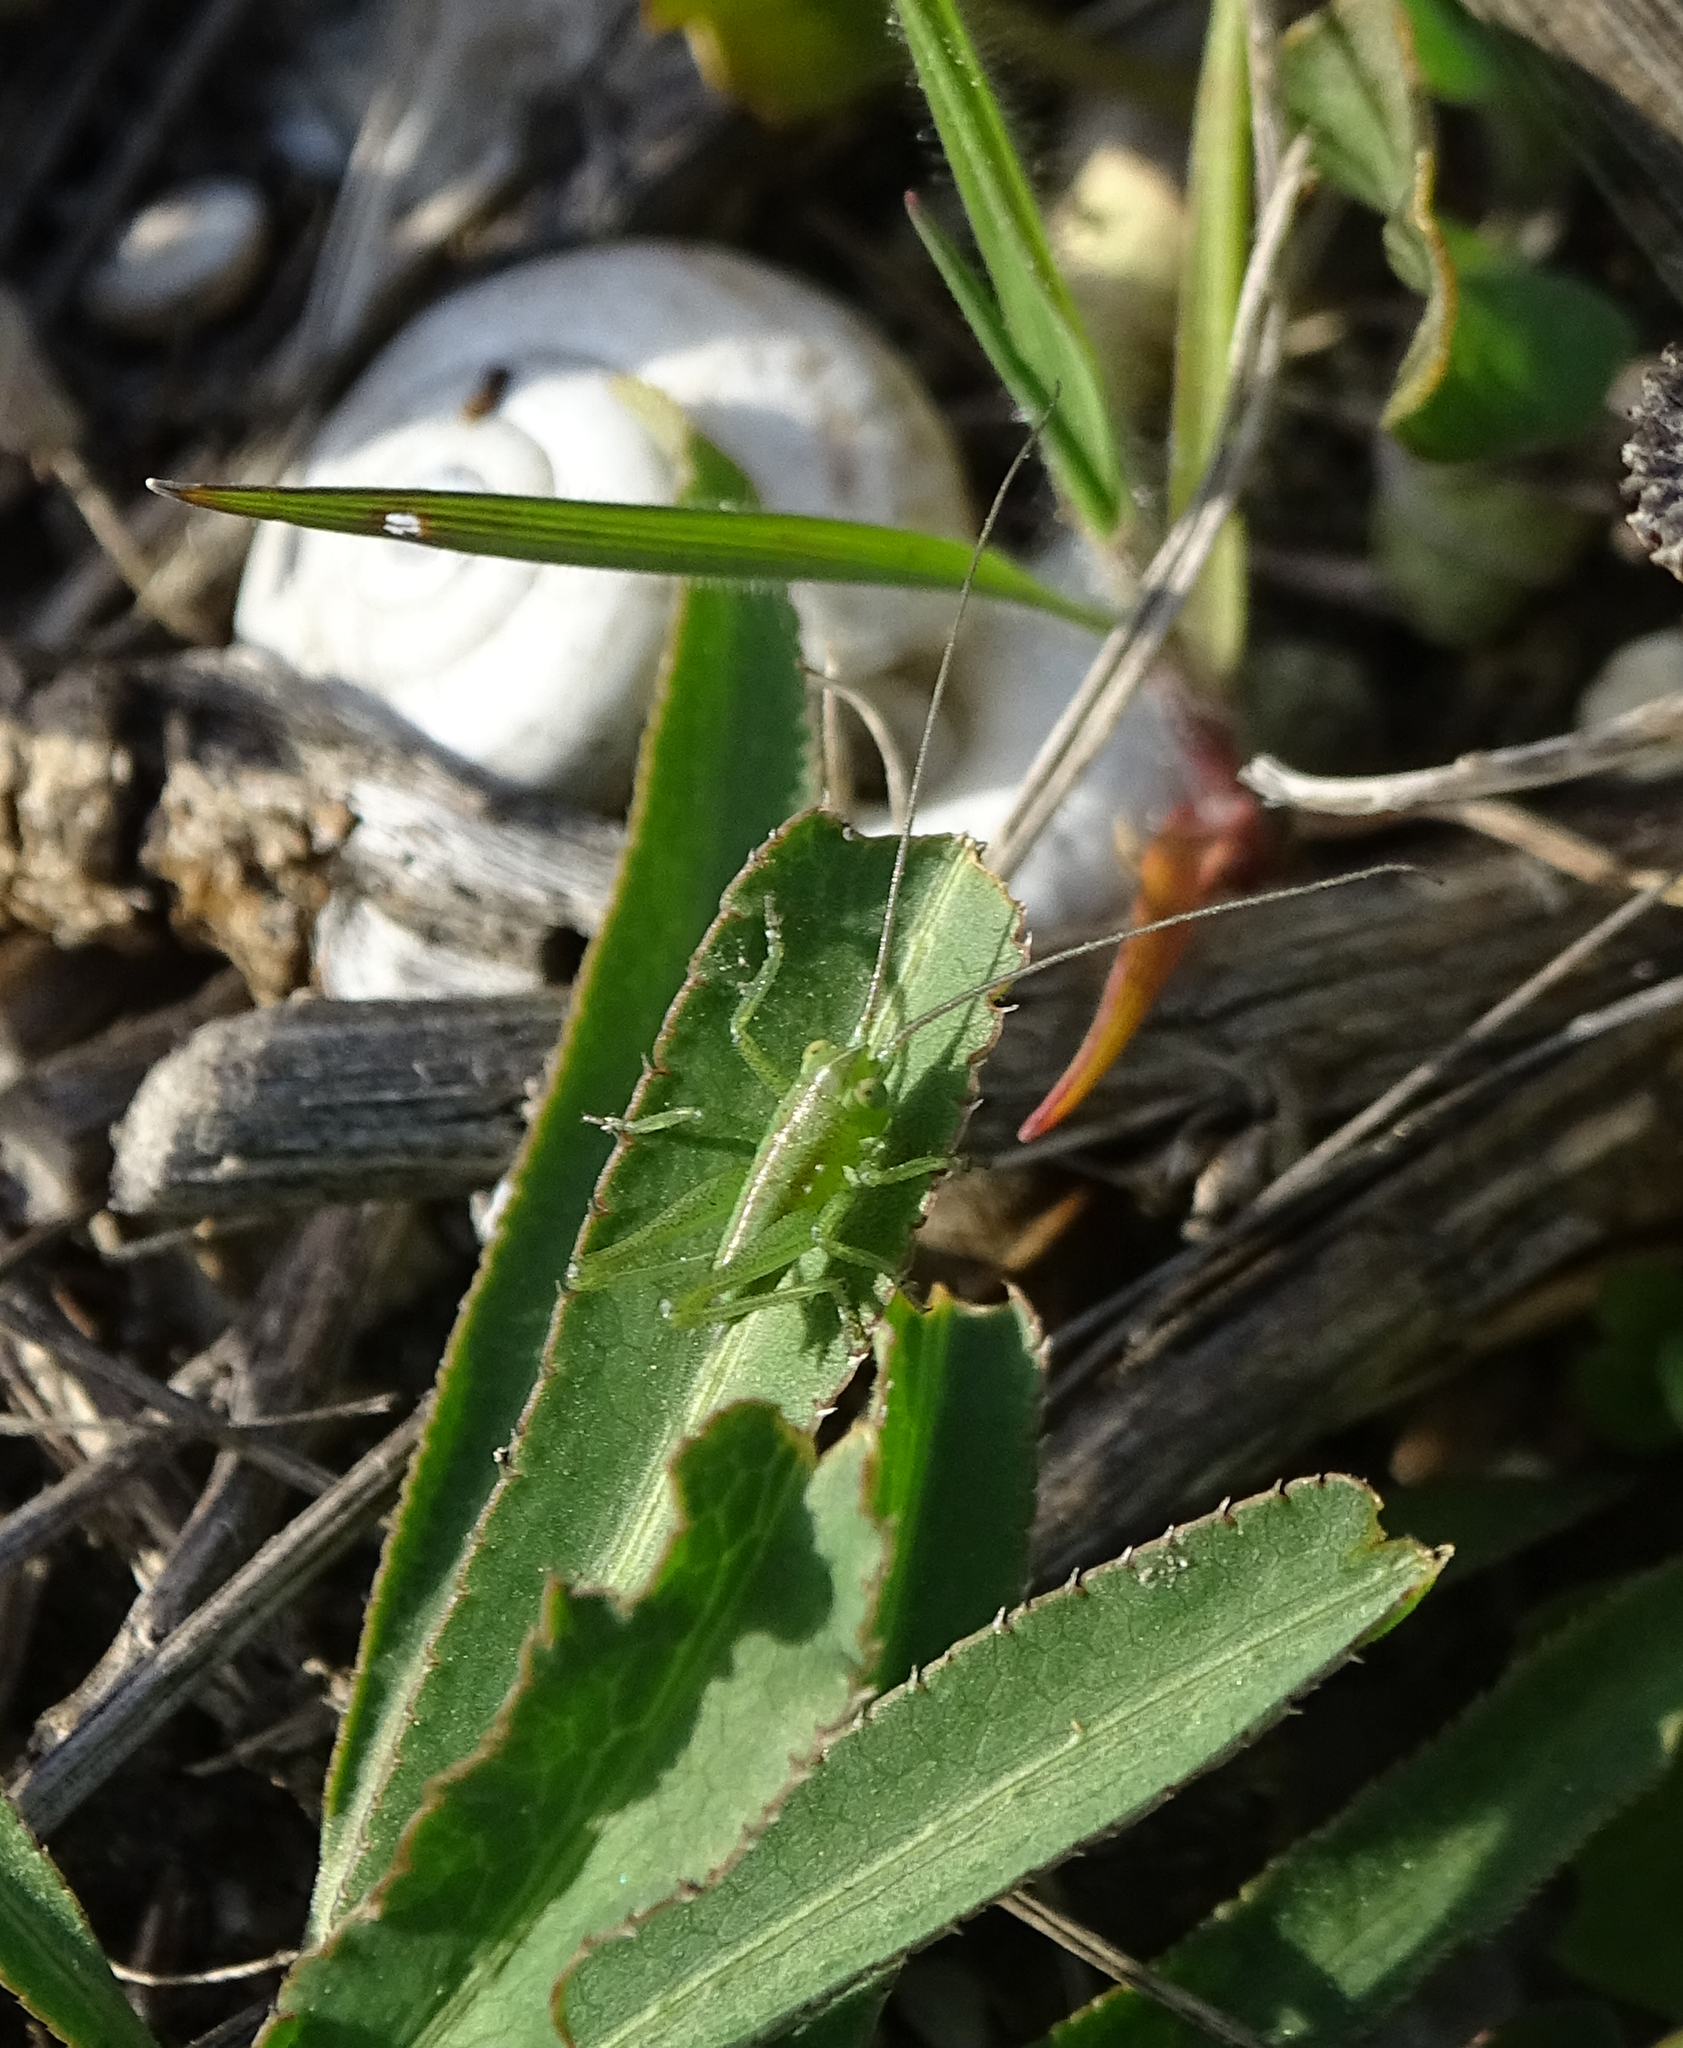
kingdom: Animalia
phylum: Arthropoda
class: Insecta
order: Orthoptera
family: Tettigoniidae
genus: Tettigonia
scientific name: Tettigonia
